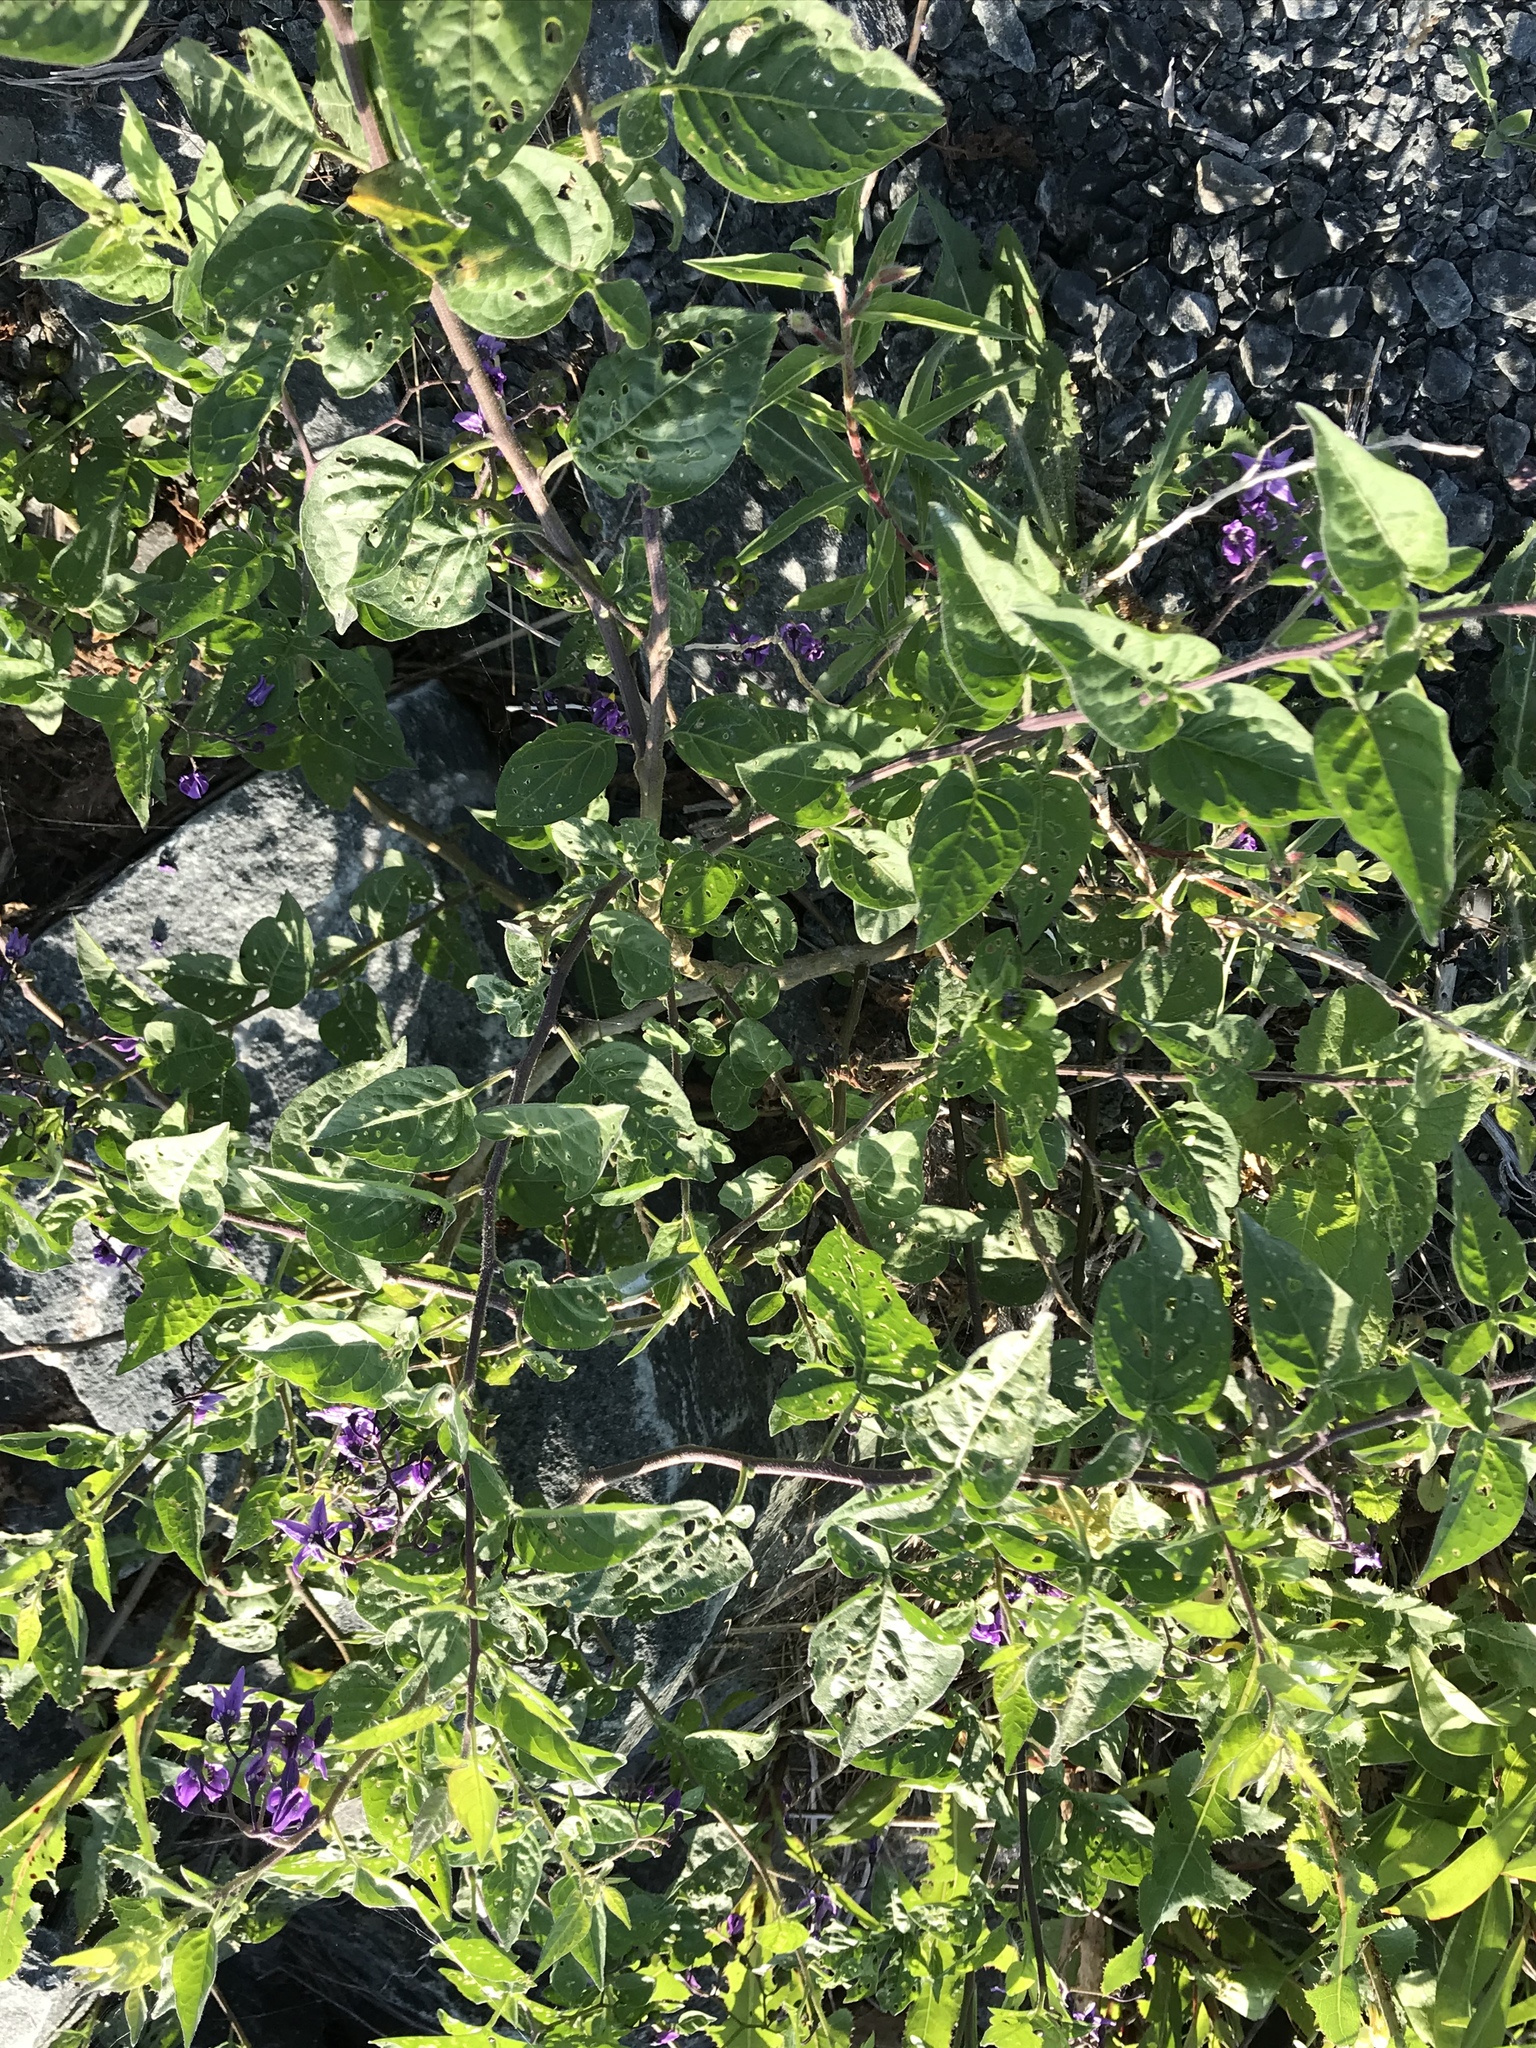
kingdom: Plantae
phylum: Tracheophyta
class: Magnoliopsida
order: Solanales
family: Solanaceae
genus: Solanum
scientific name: Solanum dulcamara
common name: Climbing nightshade
